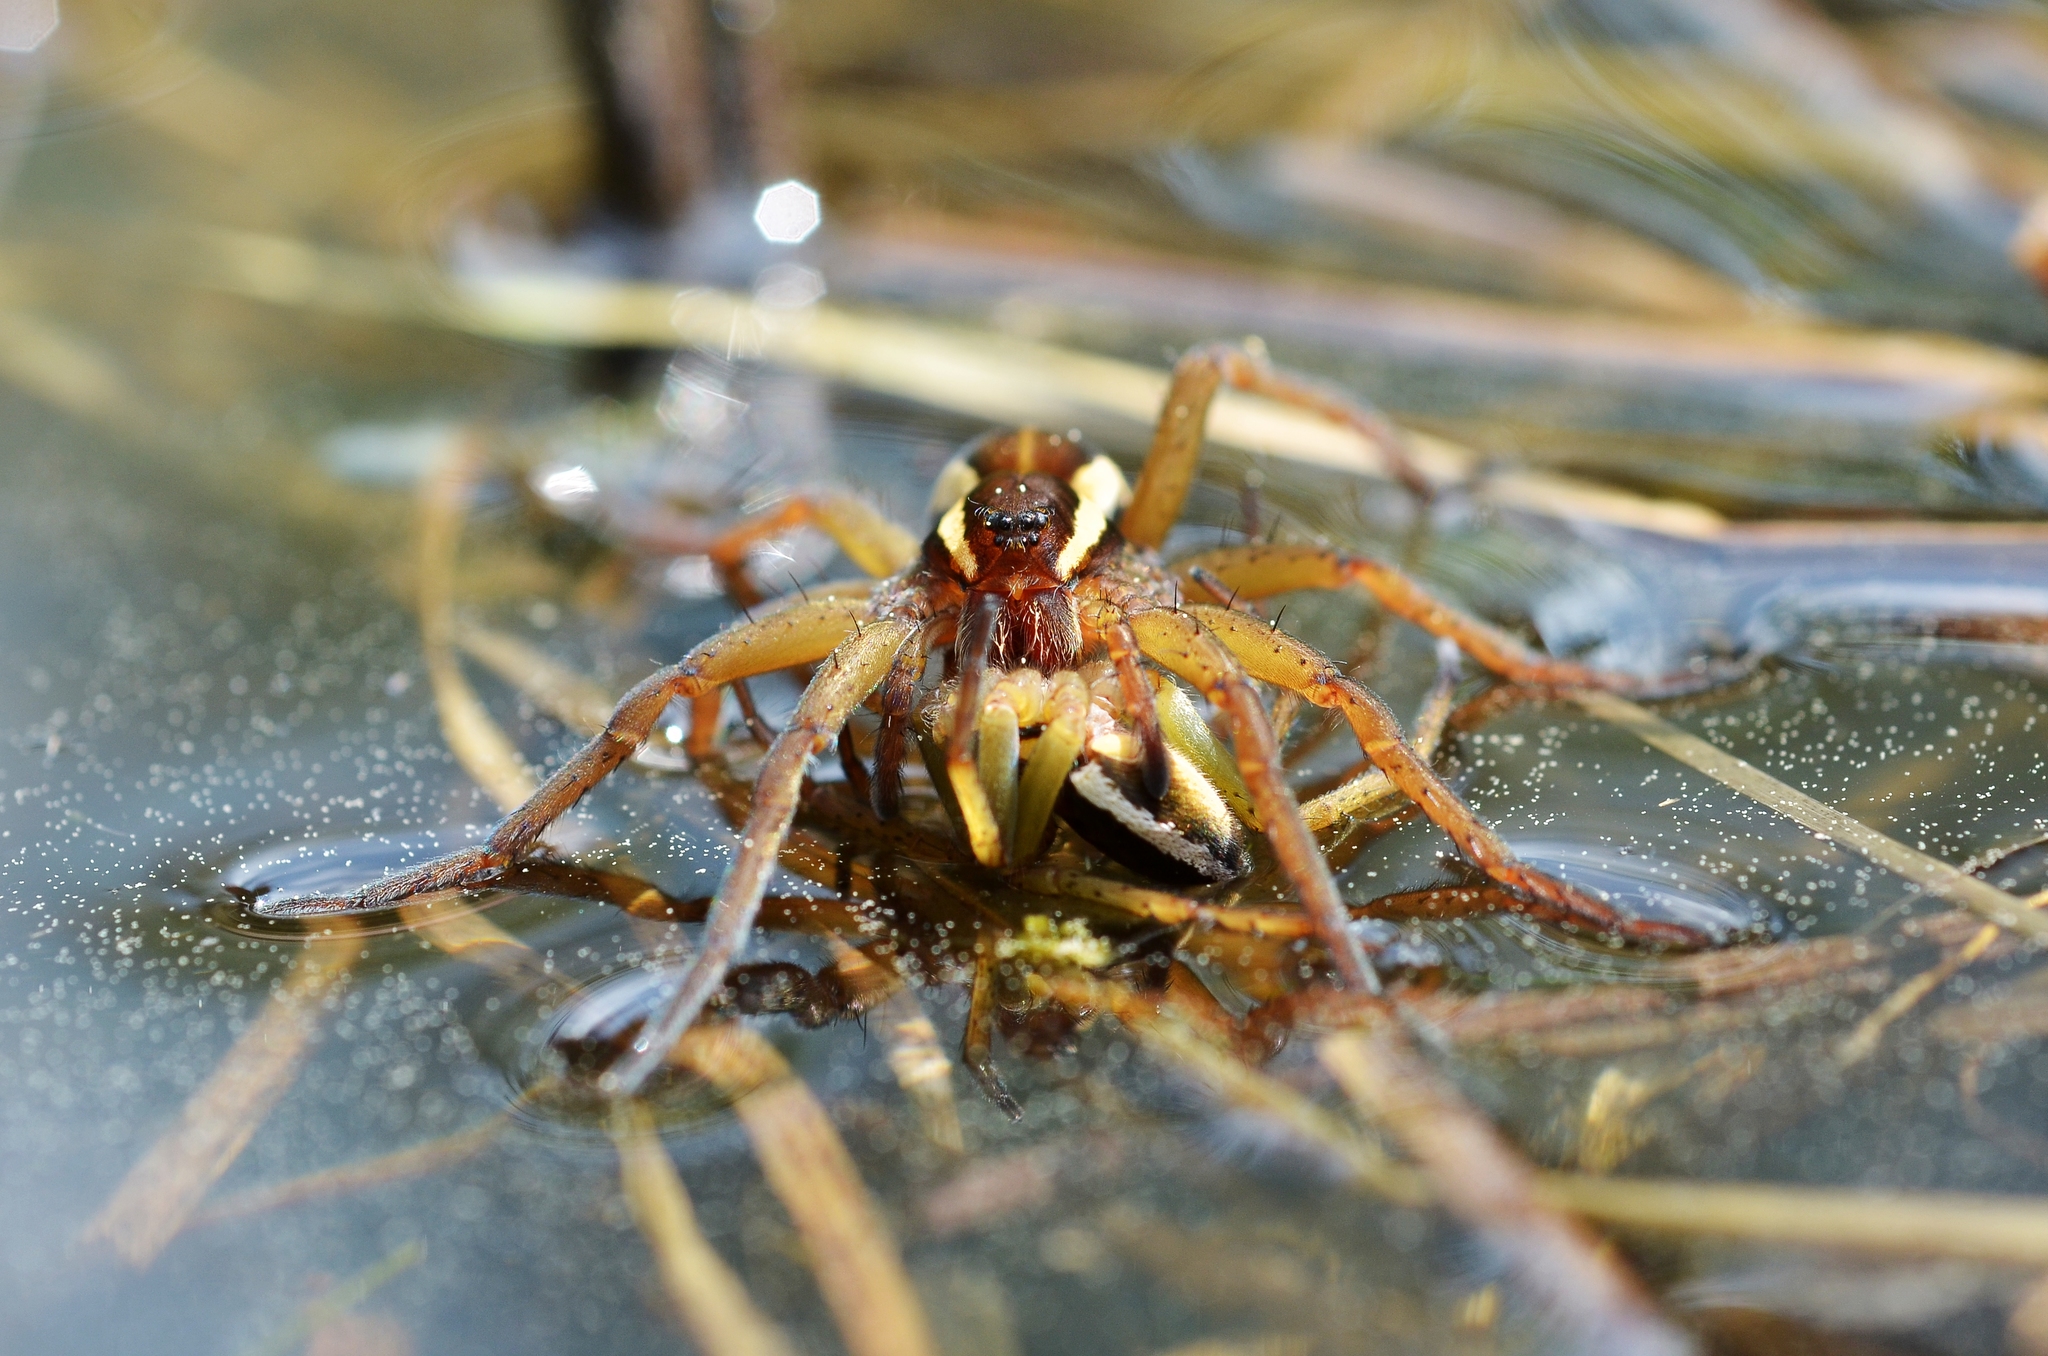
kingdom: Animalia
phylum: Arthropoda
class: Arachnida
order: Araneae
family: Pisauridae
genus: Dolomedes
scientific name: Dolomedes fimbriatus
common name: Raft spider
